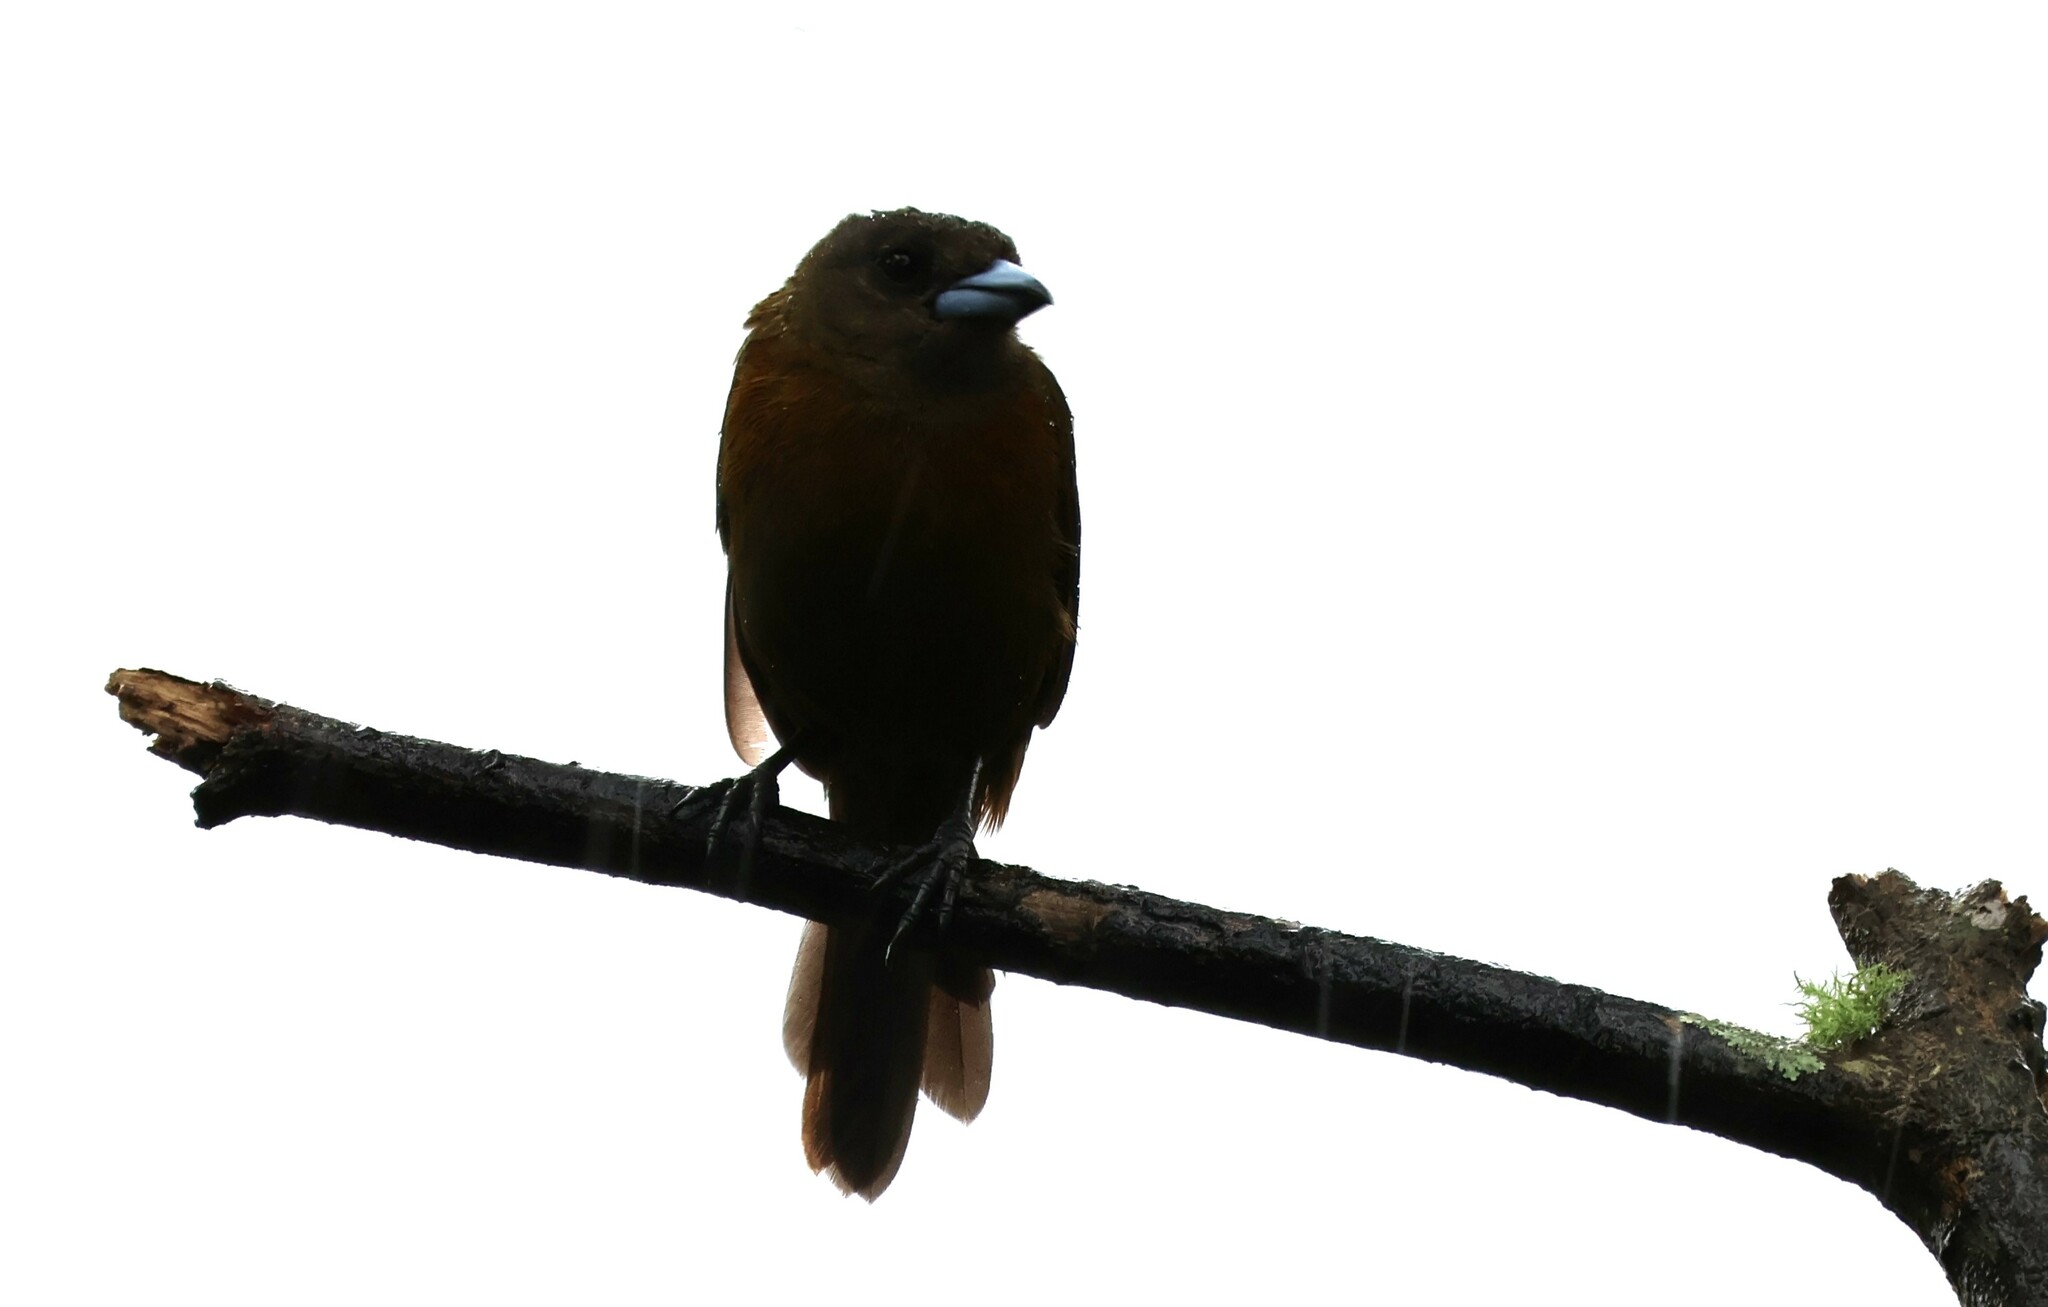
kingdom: Animalia
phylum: Chordata
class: Aves
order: Passeriformes
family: Thraupidae
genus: Ramphocelus
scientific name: Ramphocelus passerinii
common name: Passerini's tanager
